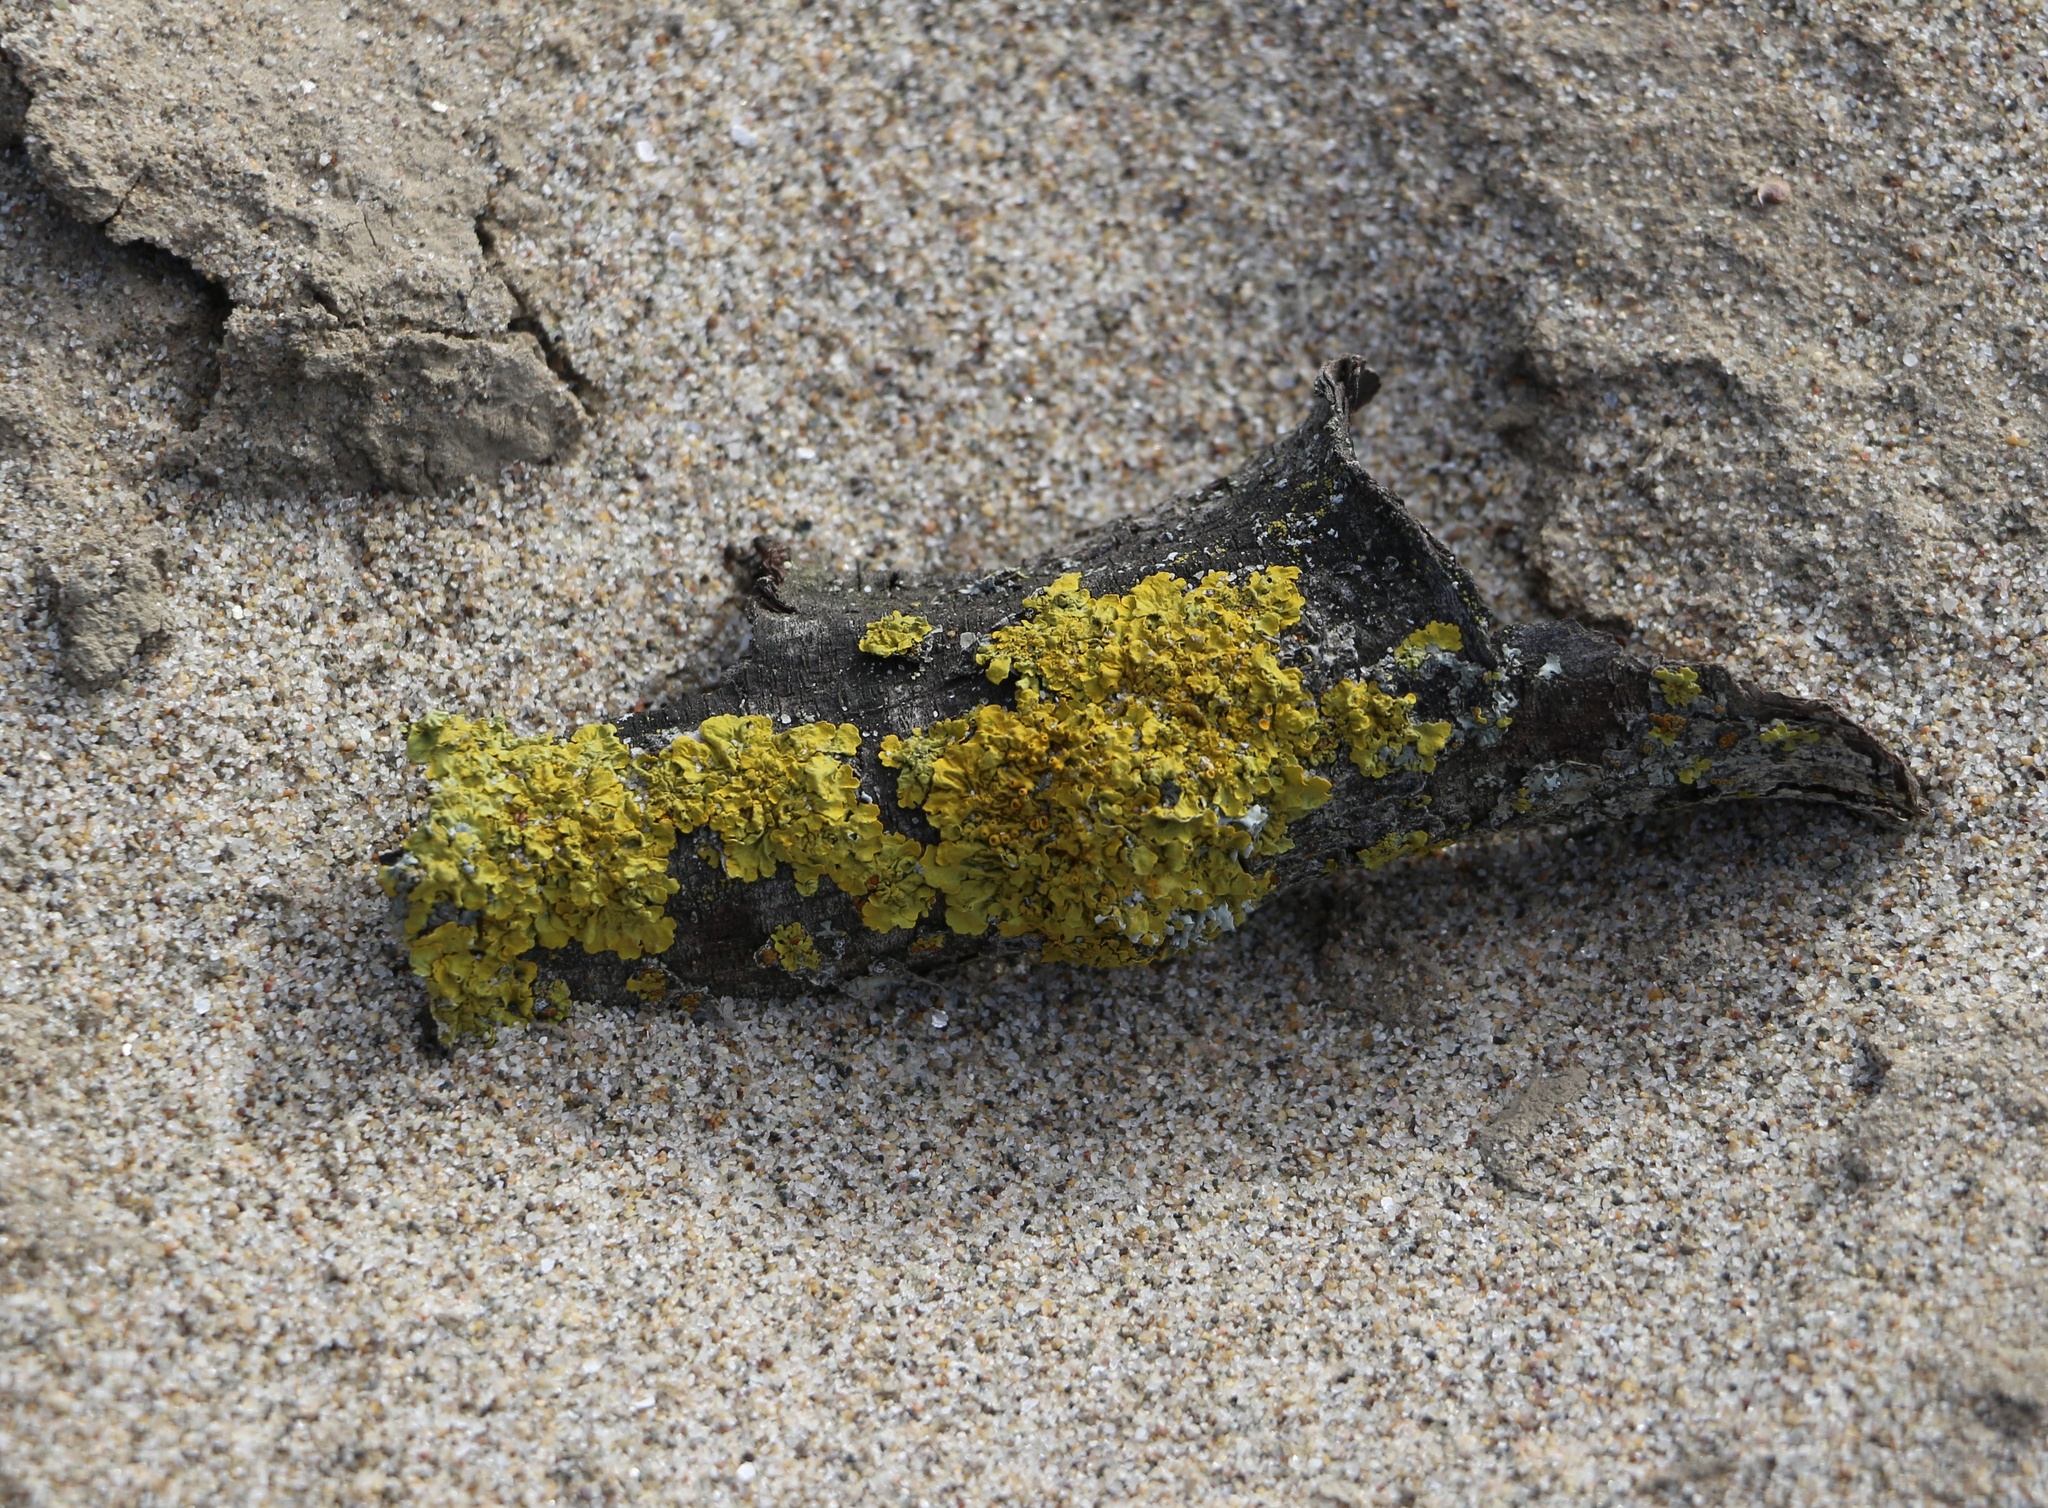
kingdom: Fungi
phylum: Ascomycota
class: Lecanoromycetes
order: Teloschistales
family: Teloschistaceae
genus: Xanthoria
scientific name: Xanthoria parietina
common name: Common orange lichen
